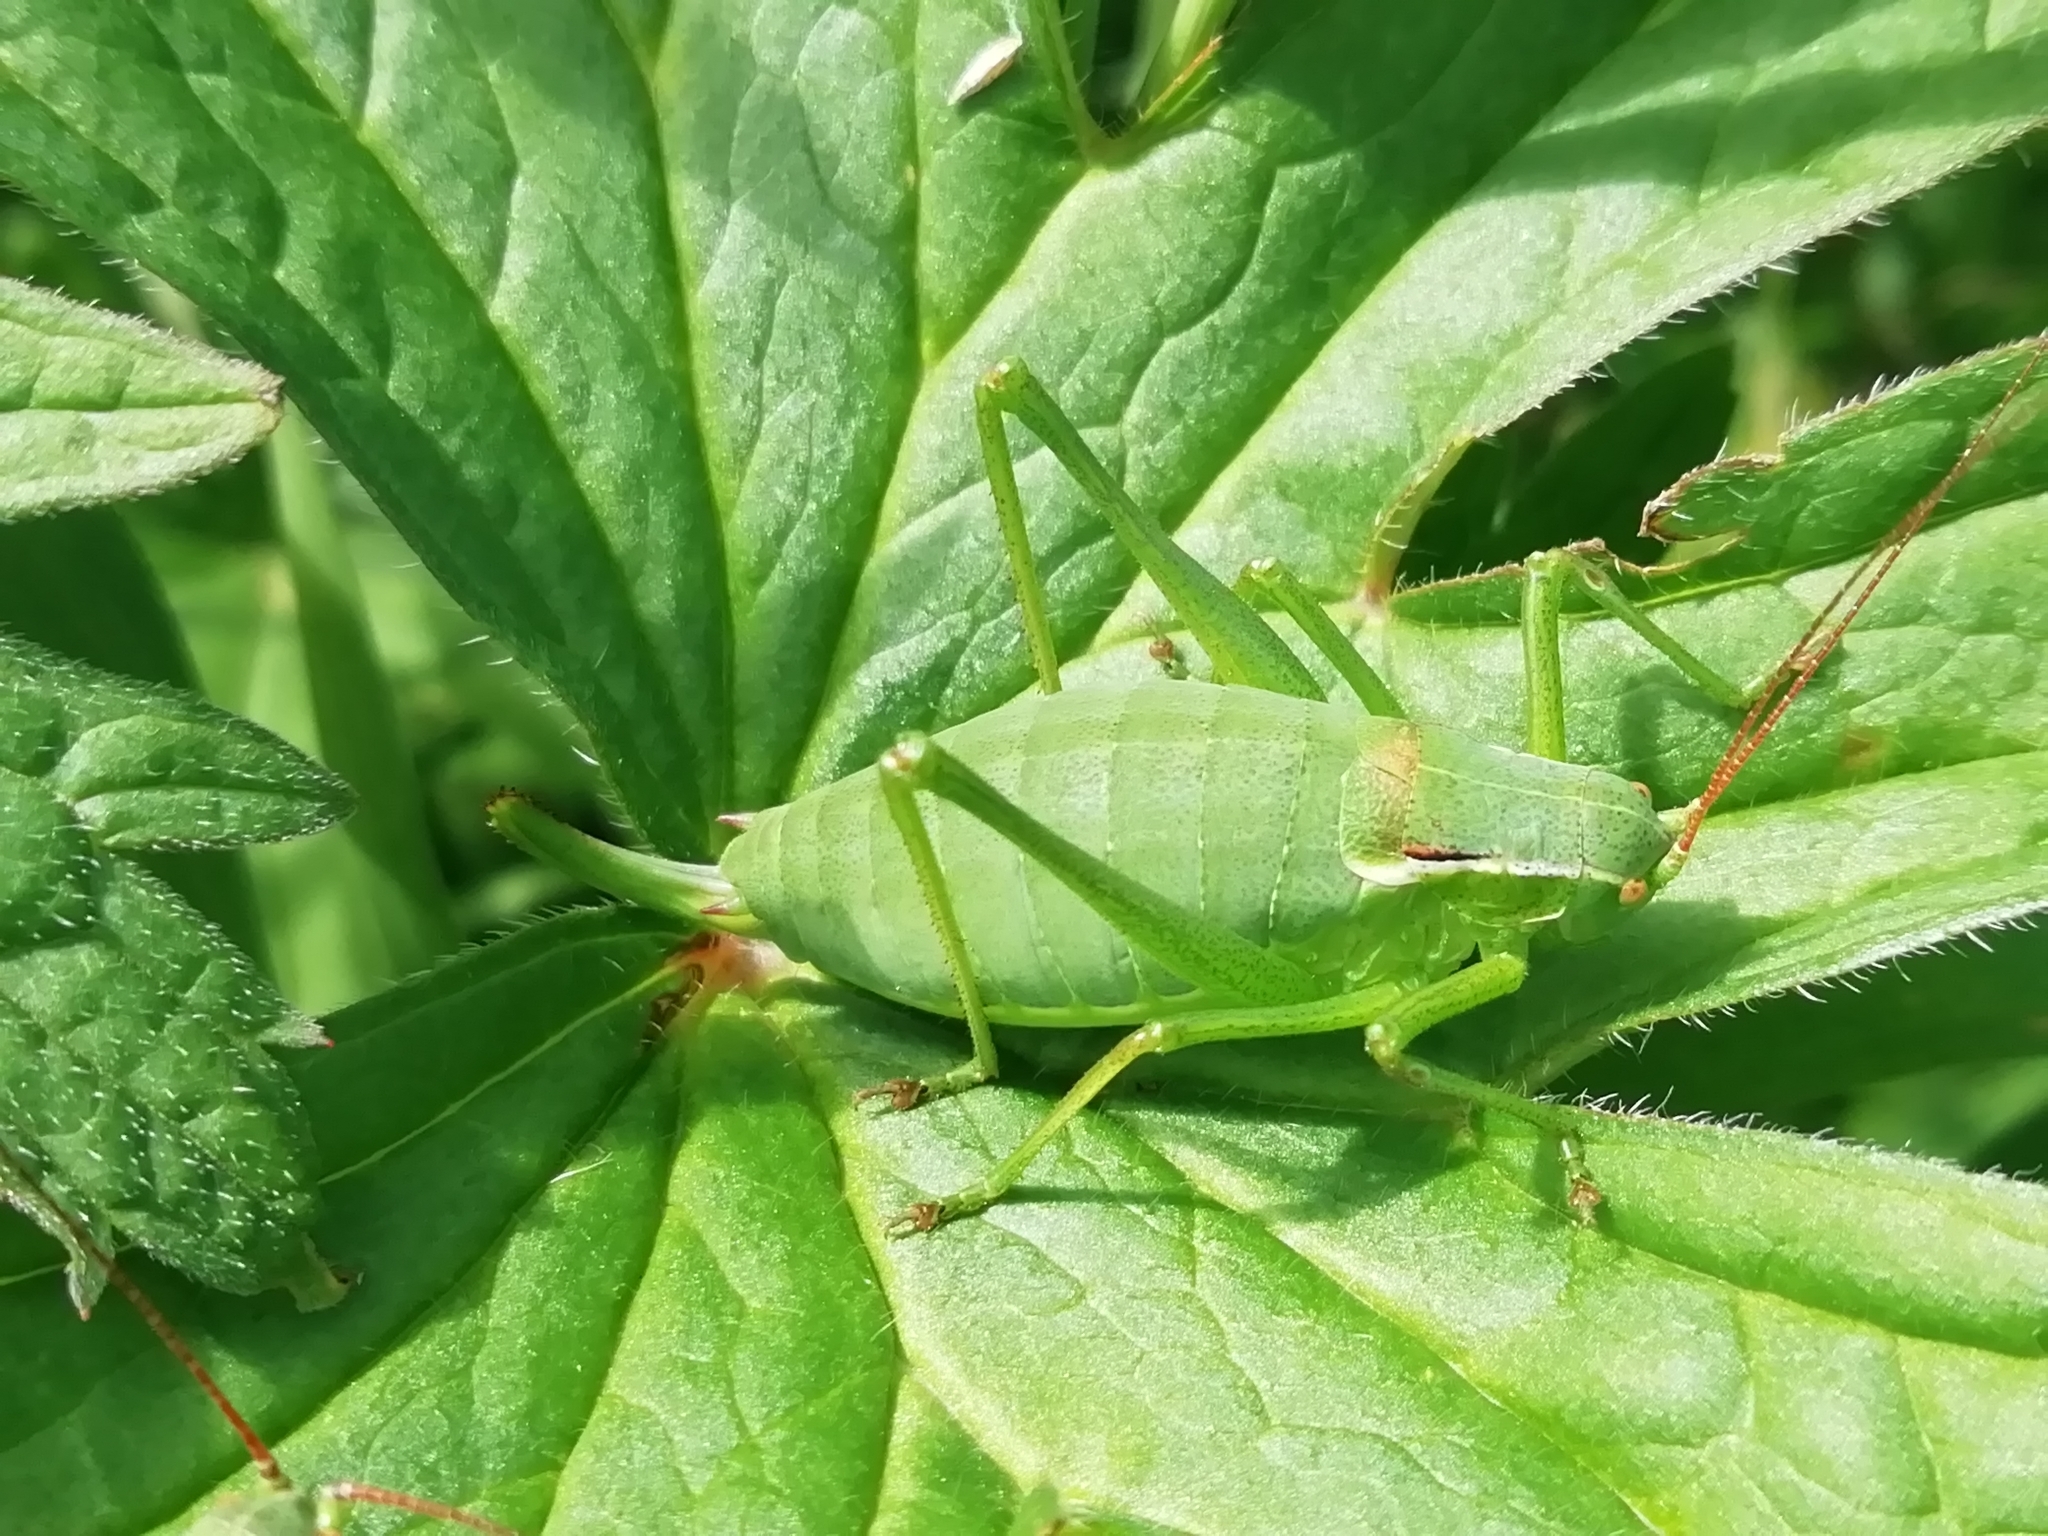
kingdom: Animalia
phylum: Arthropoda
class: Insecta
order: Orthoptera
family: Tettigoniidae
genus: Isophya
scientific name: Isophya altaica
